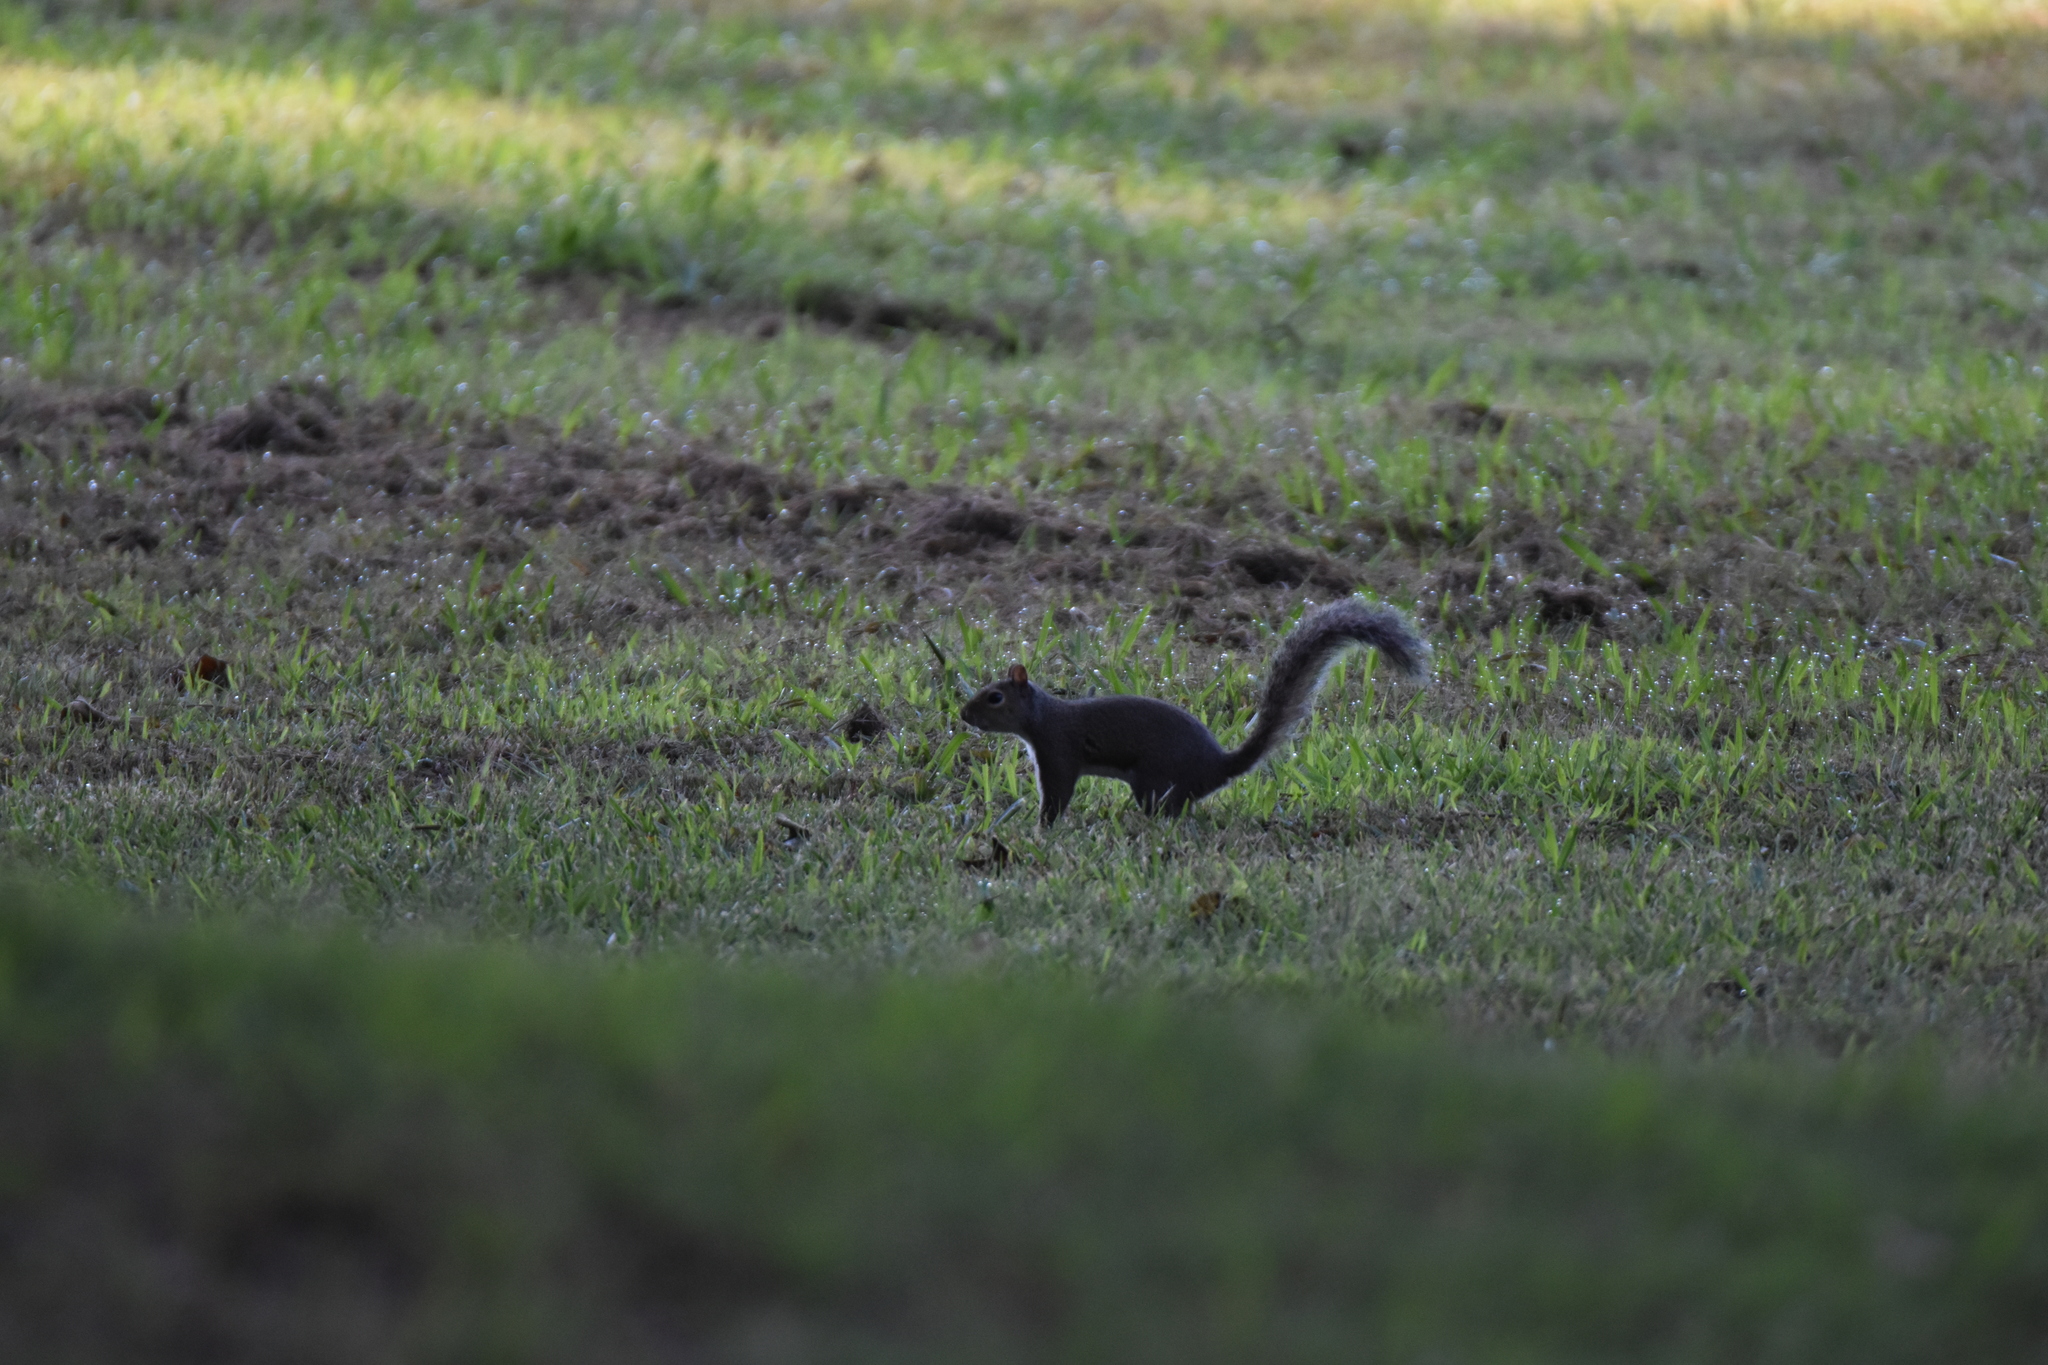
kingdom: Animalia
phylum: Chordata
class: Mammalia
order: Rodentia
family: Sciuridae
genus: Sciurus
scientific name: Sciurus carolinensis
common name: Eastern gray squirrel
